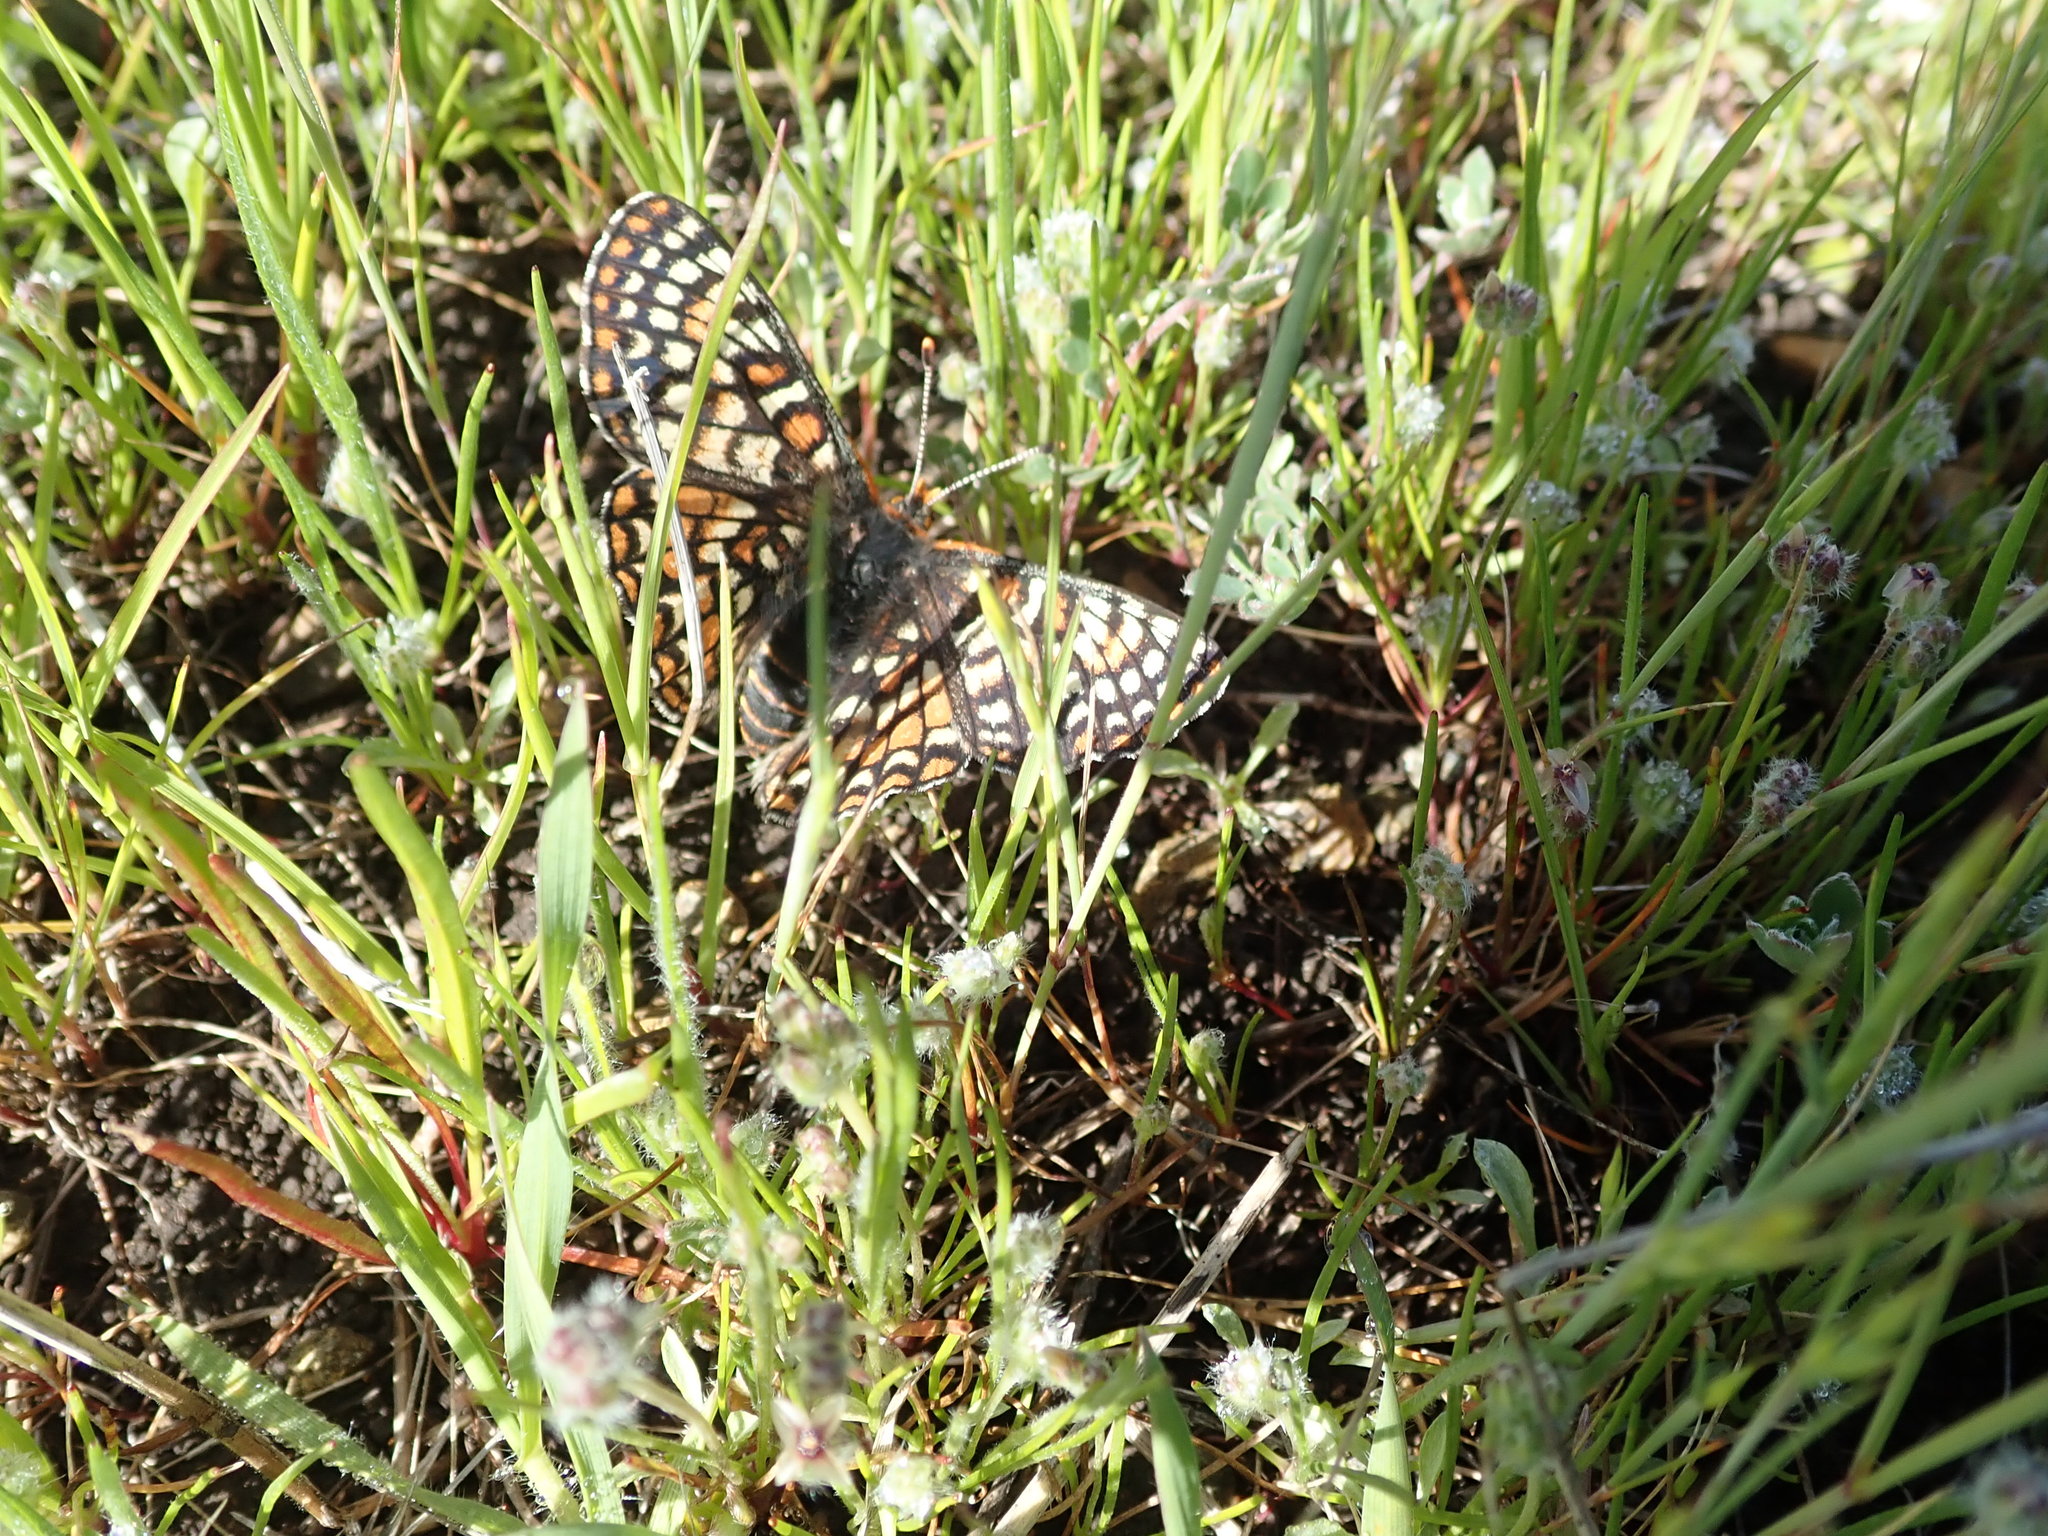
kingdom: Animalia
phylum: Arthropoda
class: Insecta
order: Lepidoptera
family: Nymphalidae
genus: Occidryas
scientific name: Occidryas editha
